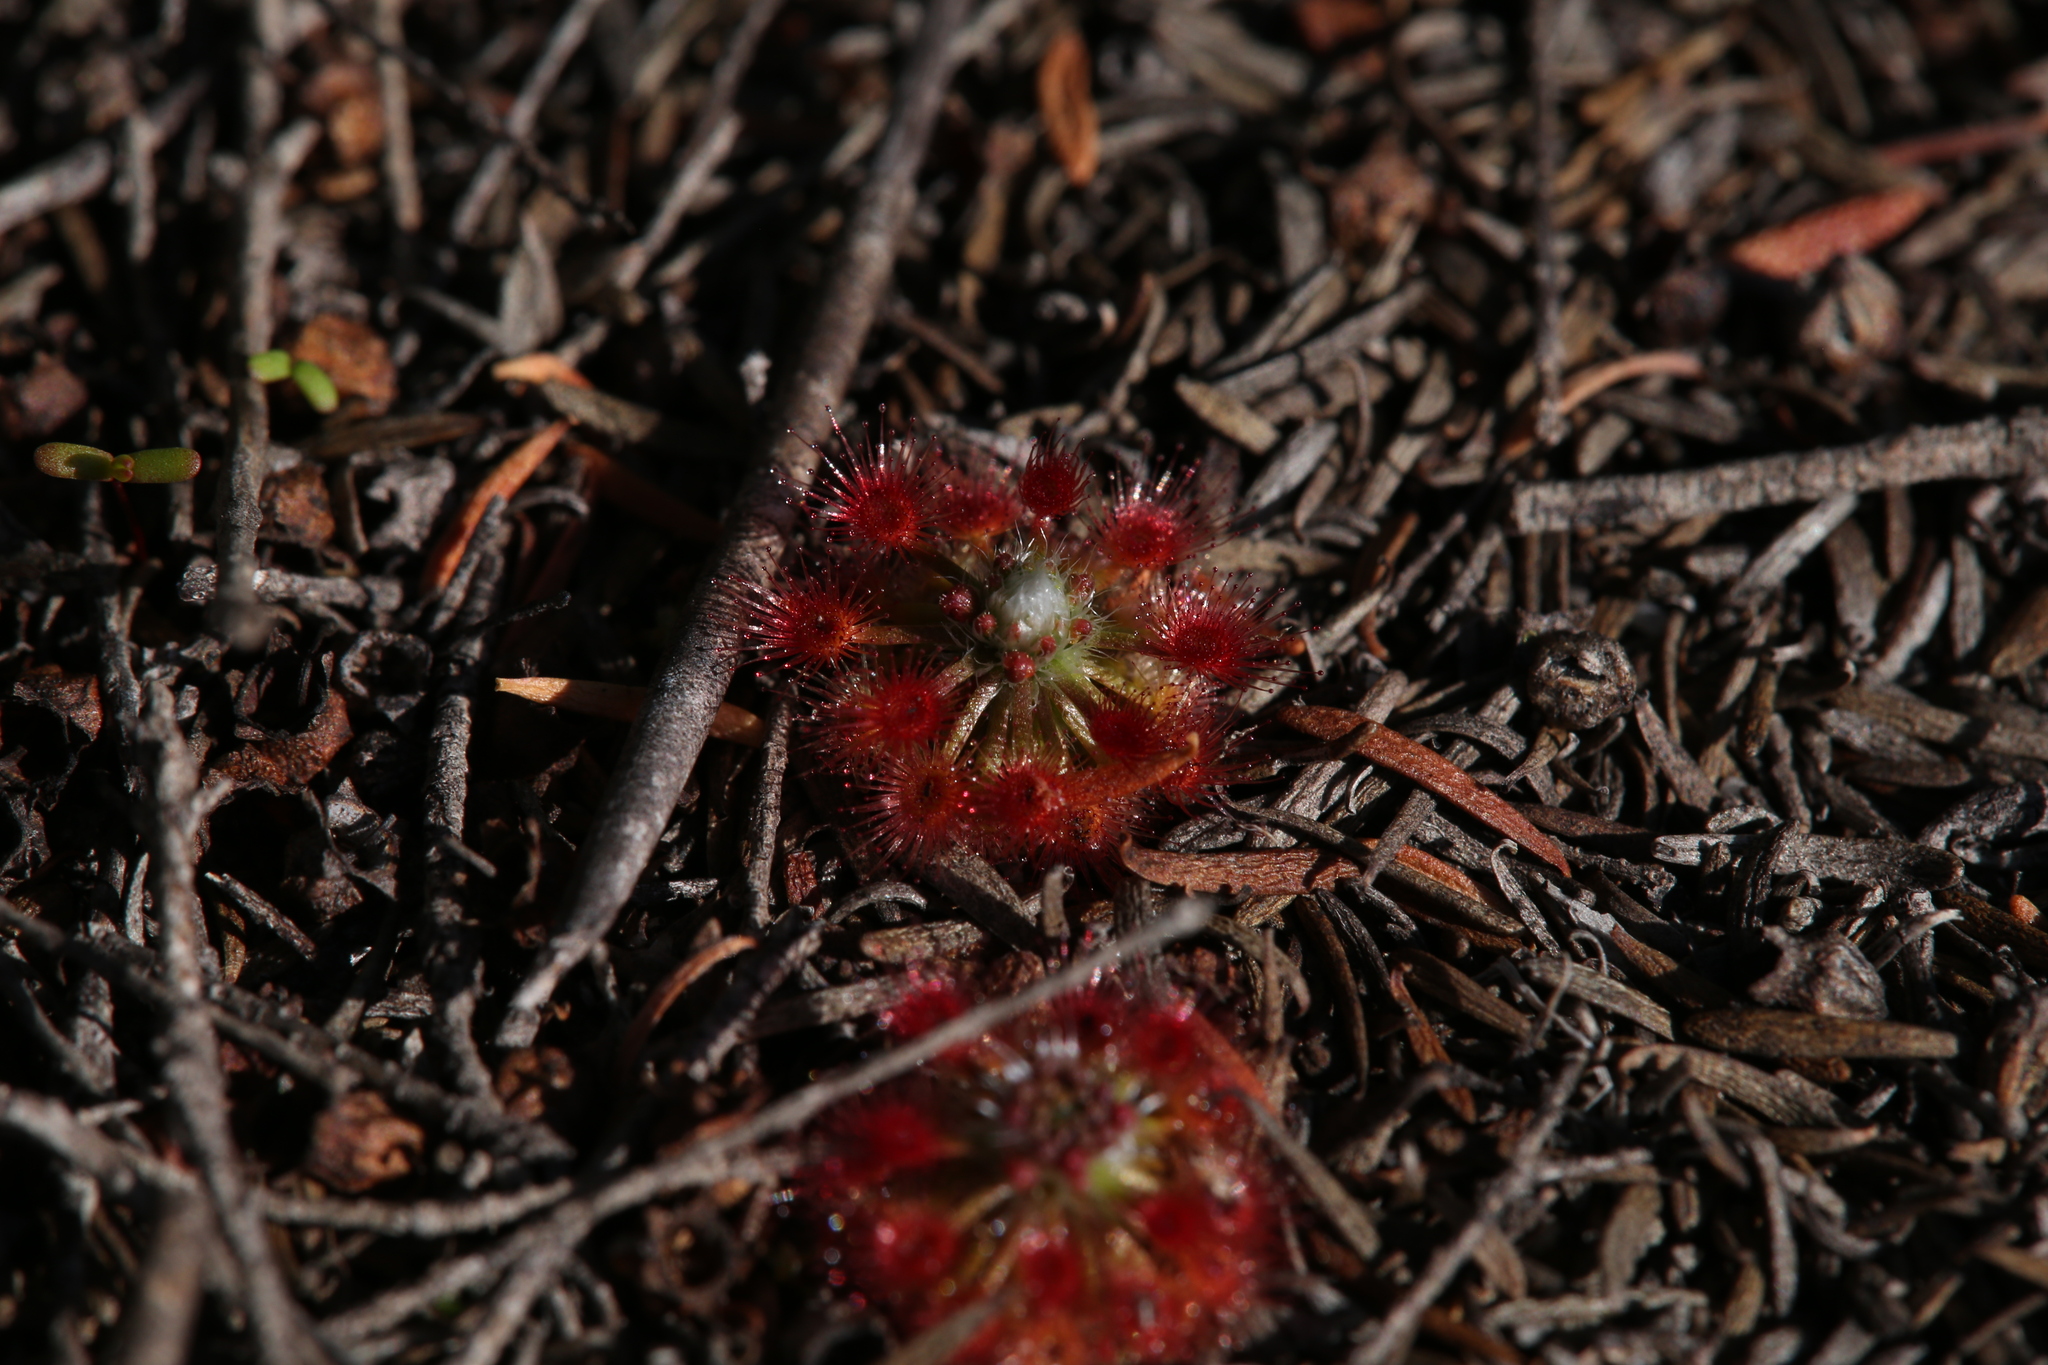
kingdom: Plantae
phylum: Tracheophyta
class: Magnoliopsida
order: Caryophyllales
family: Droseraceae
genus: Drosera
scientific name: Drosera paleacea
